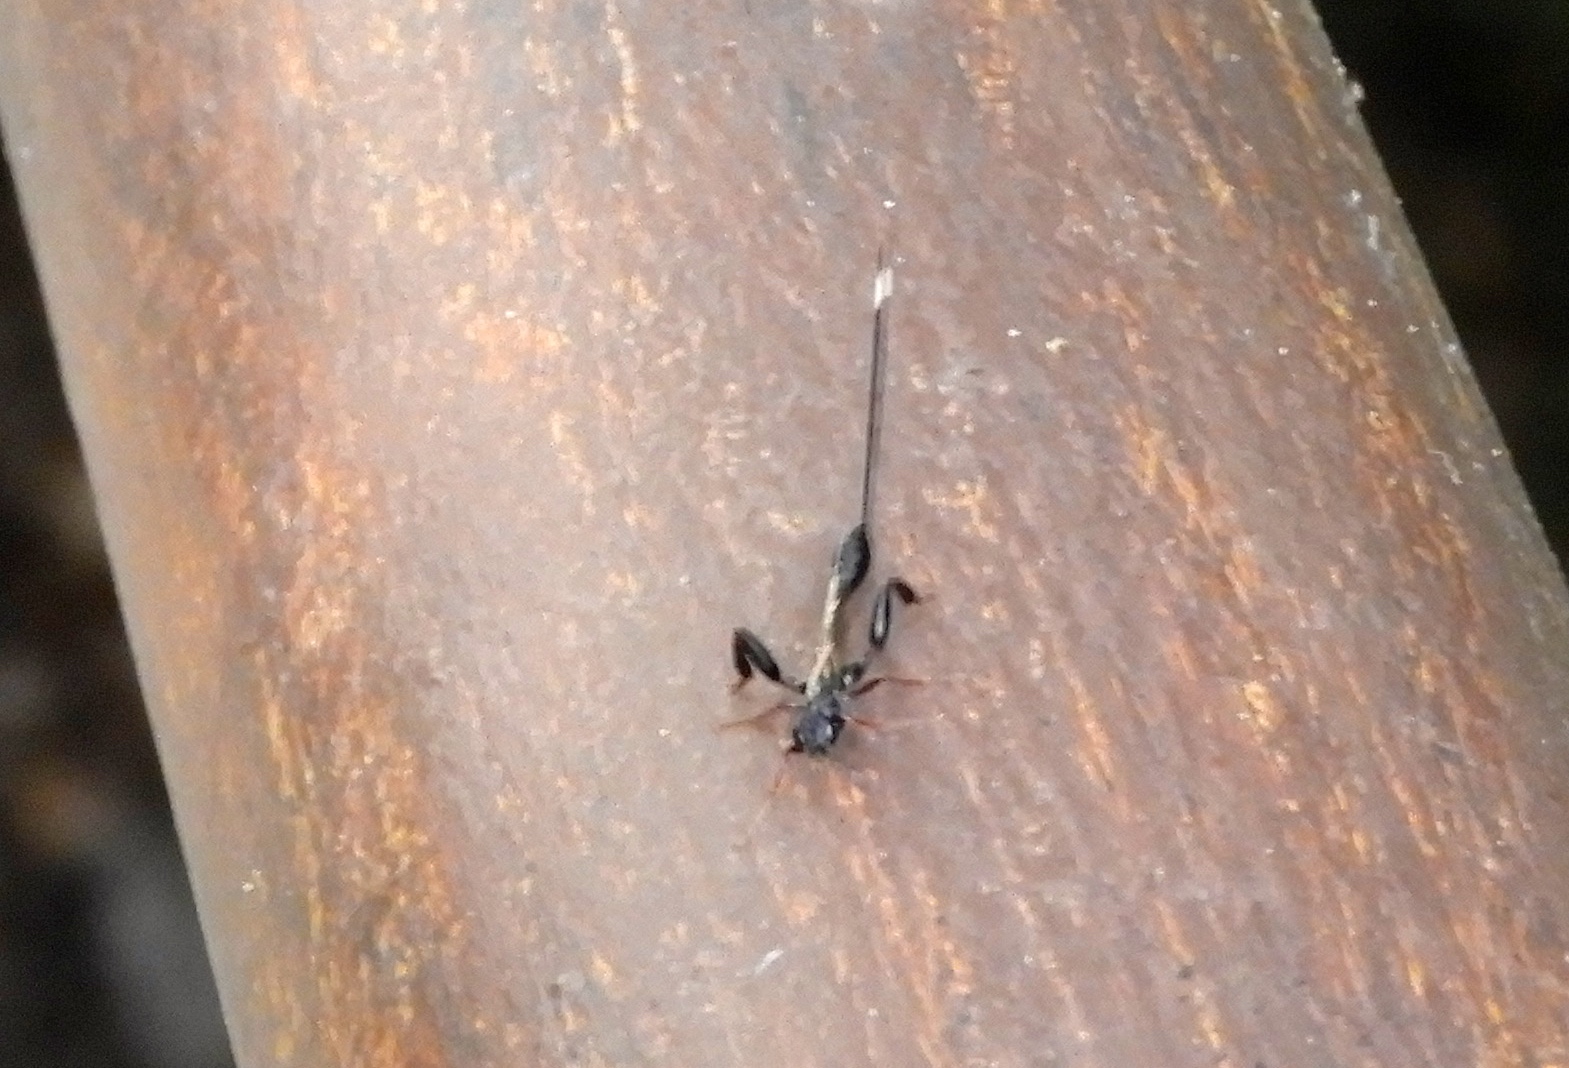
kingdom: Animalia
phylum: Arthropoda
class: Insecta
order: Hymenoptera
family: Stephanidae
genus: Megischus
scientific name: Megischus
